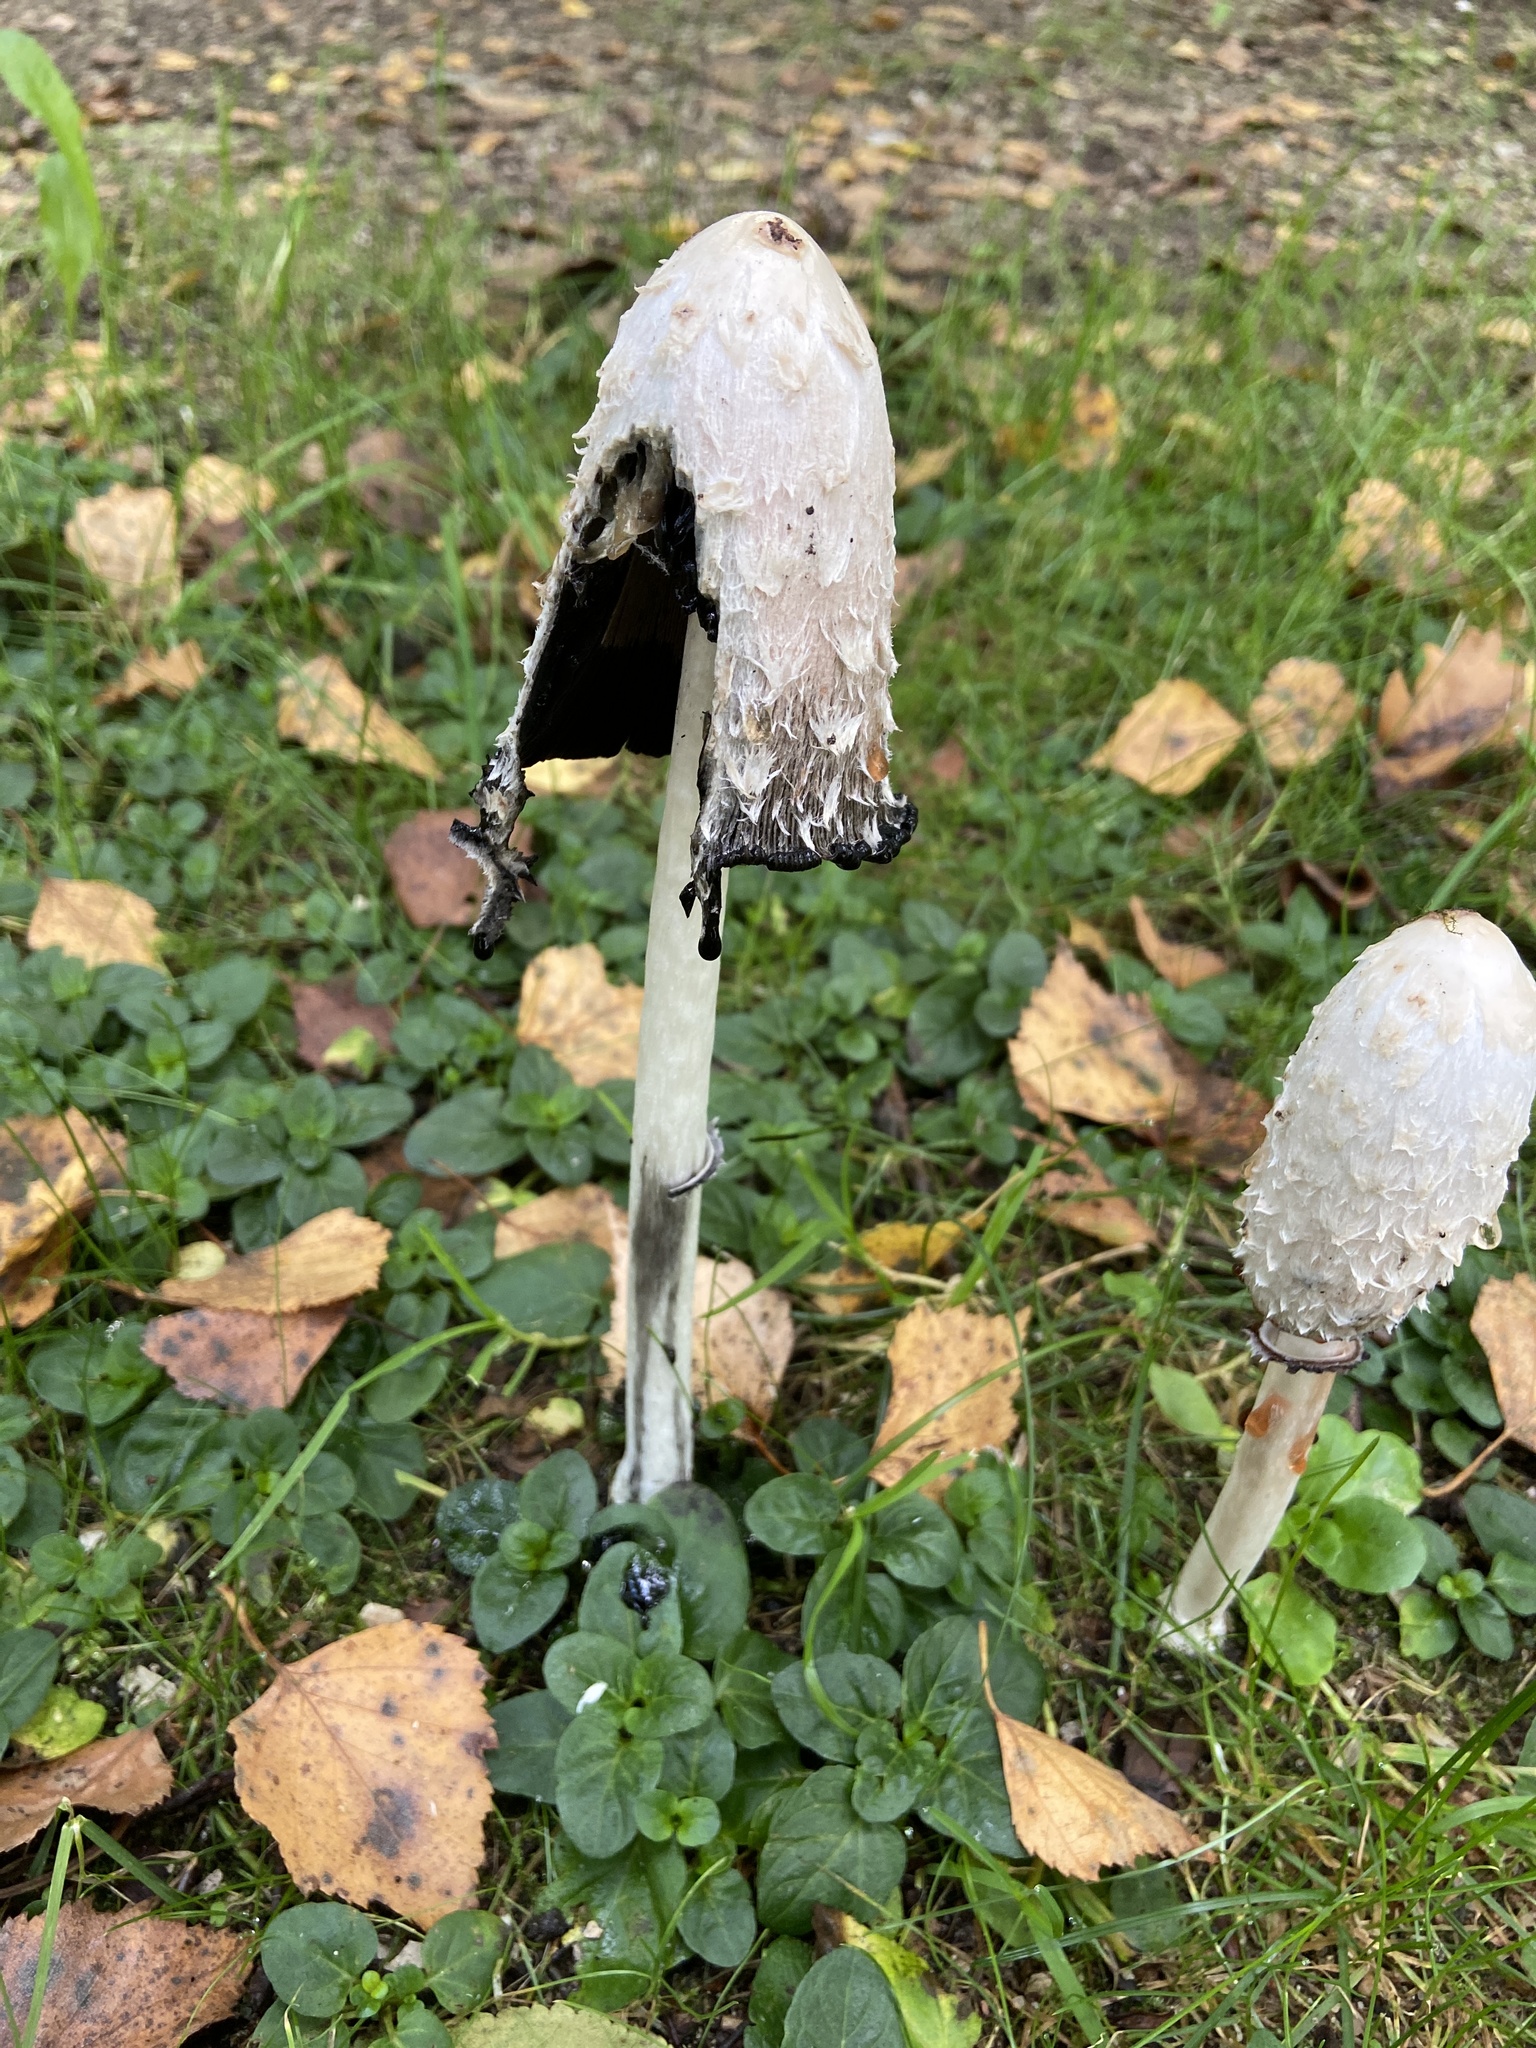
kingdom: Fungi
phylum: Basidiomycota
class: Agaricomycetes
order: Agaricales
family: Agaricaceae
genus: Coprinus
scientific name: Coprinus comatus
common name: Lawyer's wig
